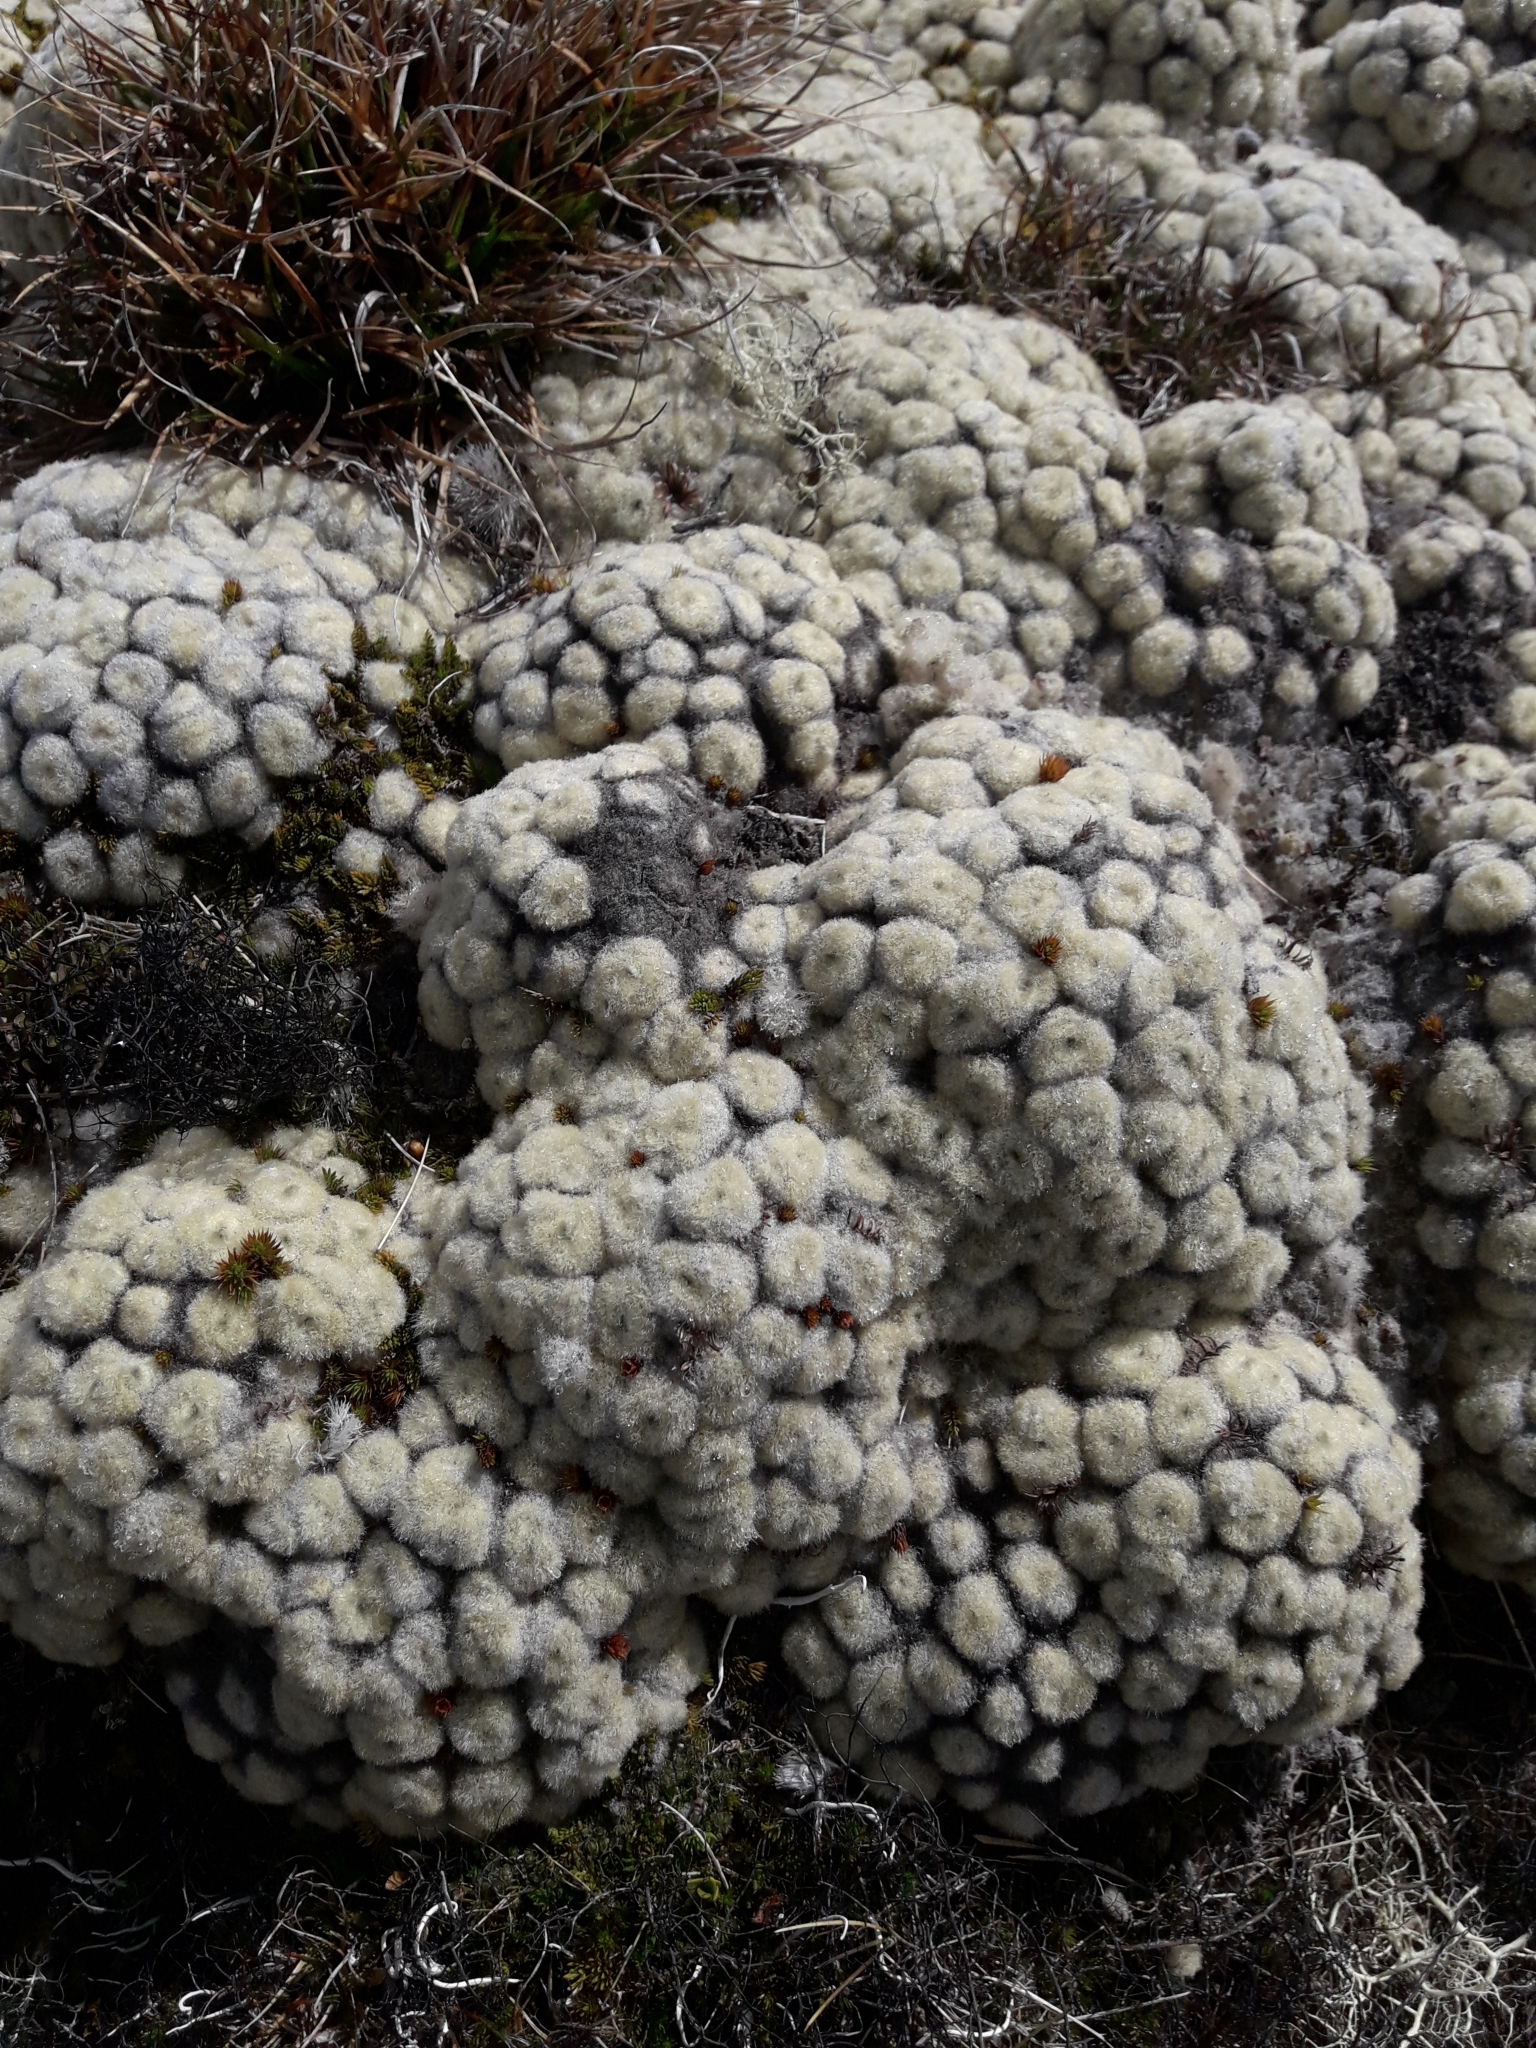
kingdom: Plantae
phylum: Tracheophyta
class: Magnoliopsida
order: Asterales
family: Asteraceae
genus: Haastia
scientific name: Haastia pulvinaris
